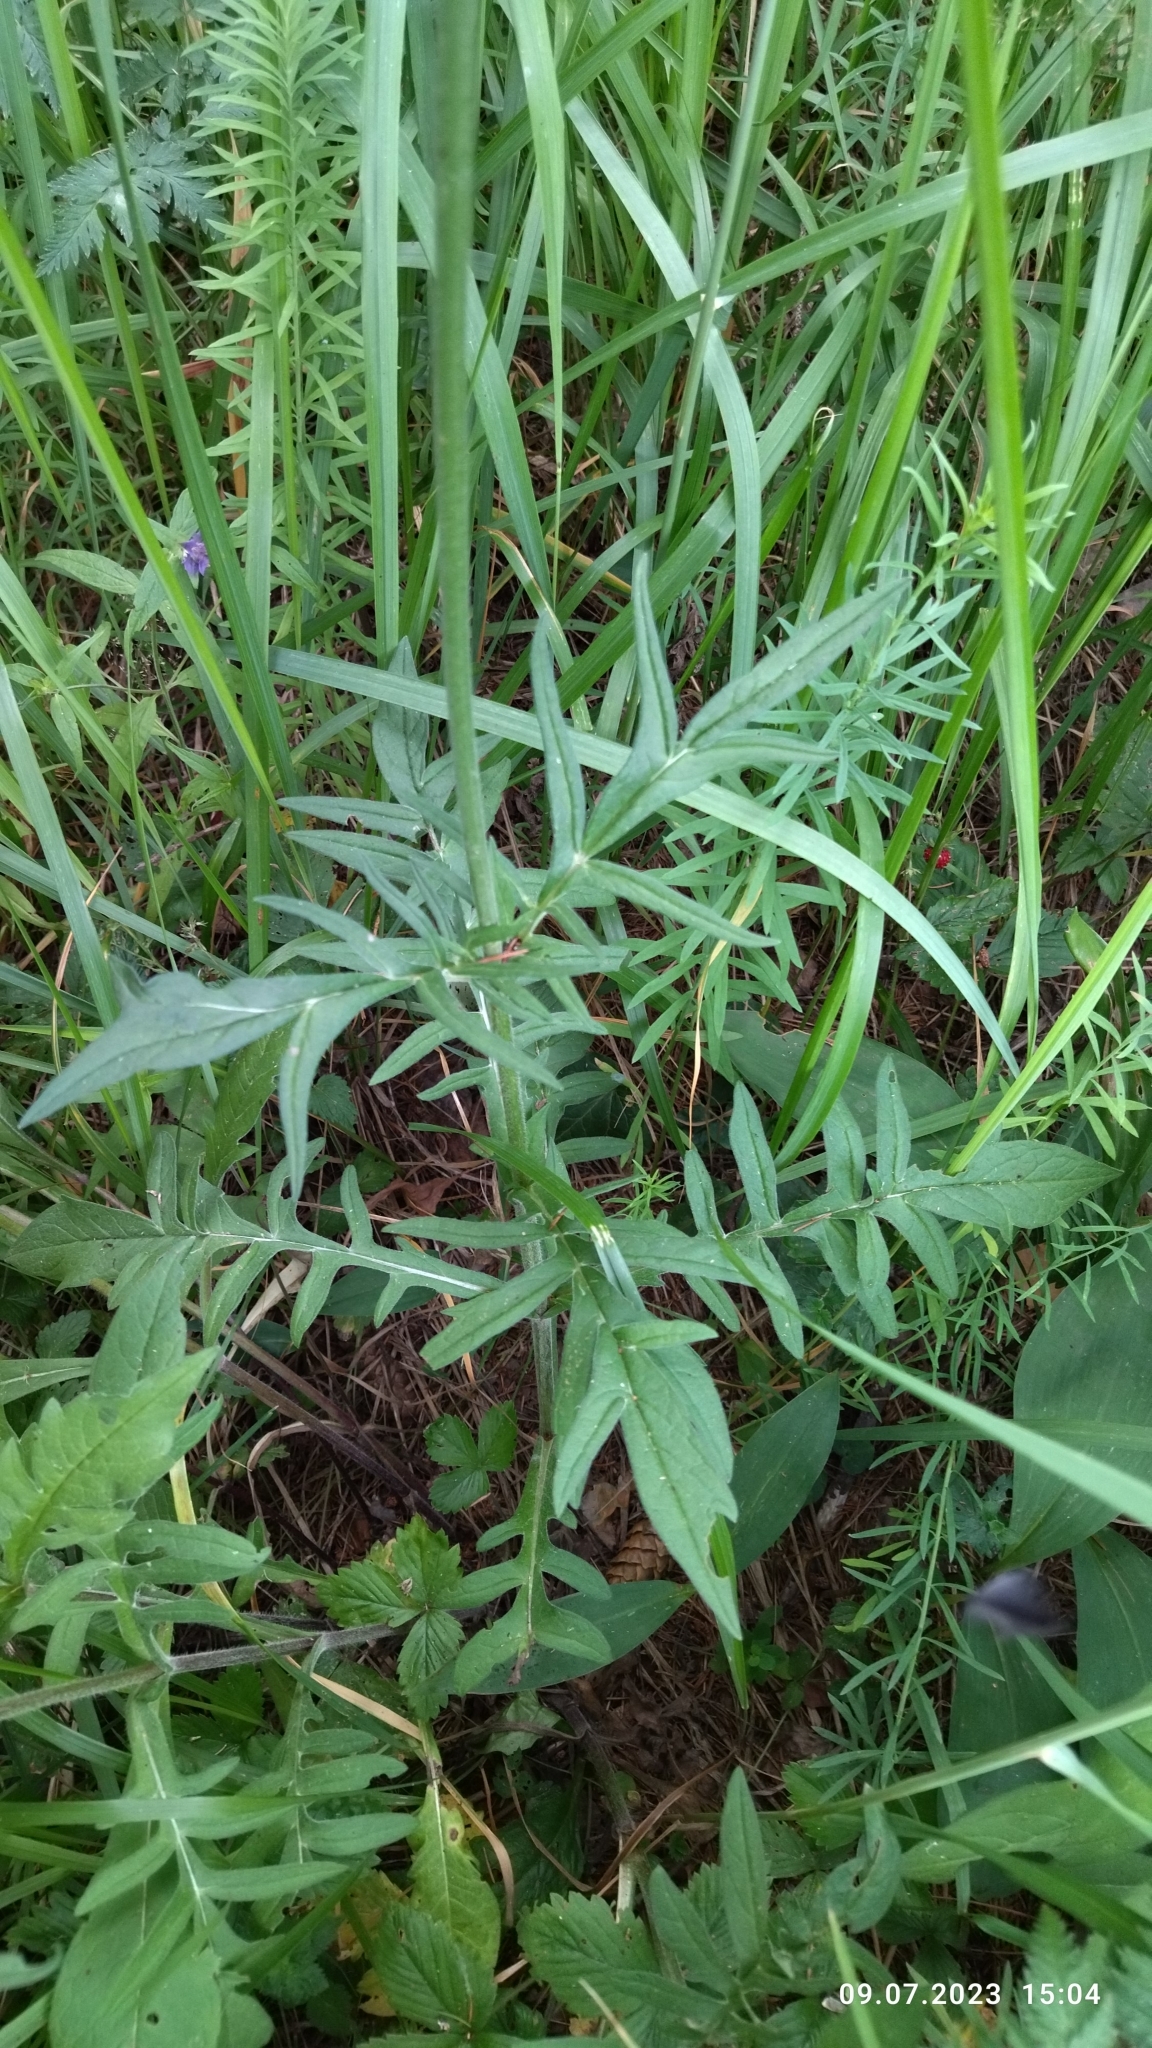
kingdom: Plantae
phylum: Tracheophyta
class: Magnoliopsida
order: Dipsacales
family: Caprifoliaceae
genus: Knautia
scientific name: Knautia arvensis
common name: Field scabiosa
